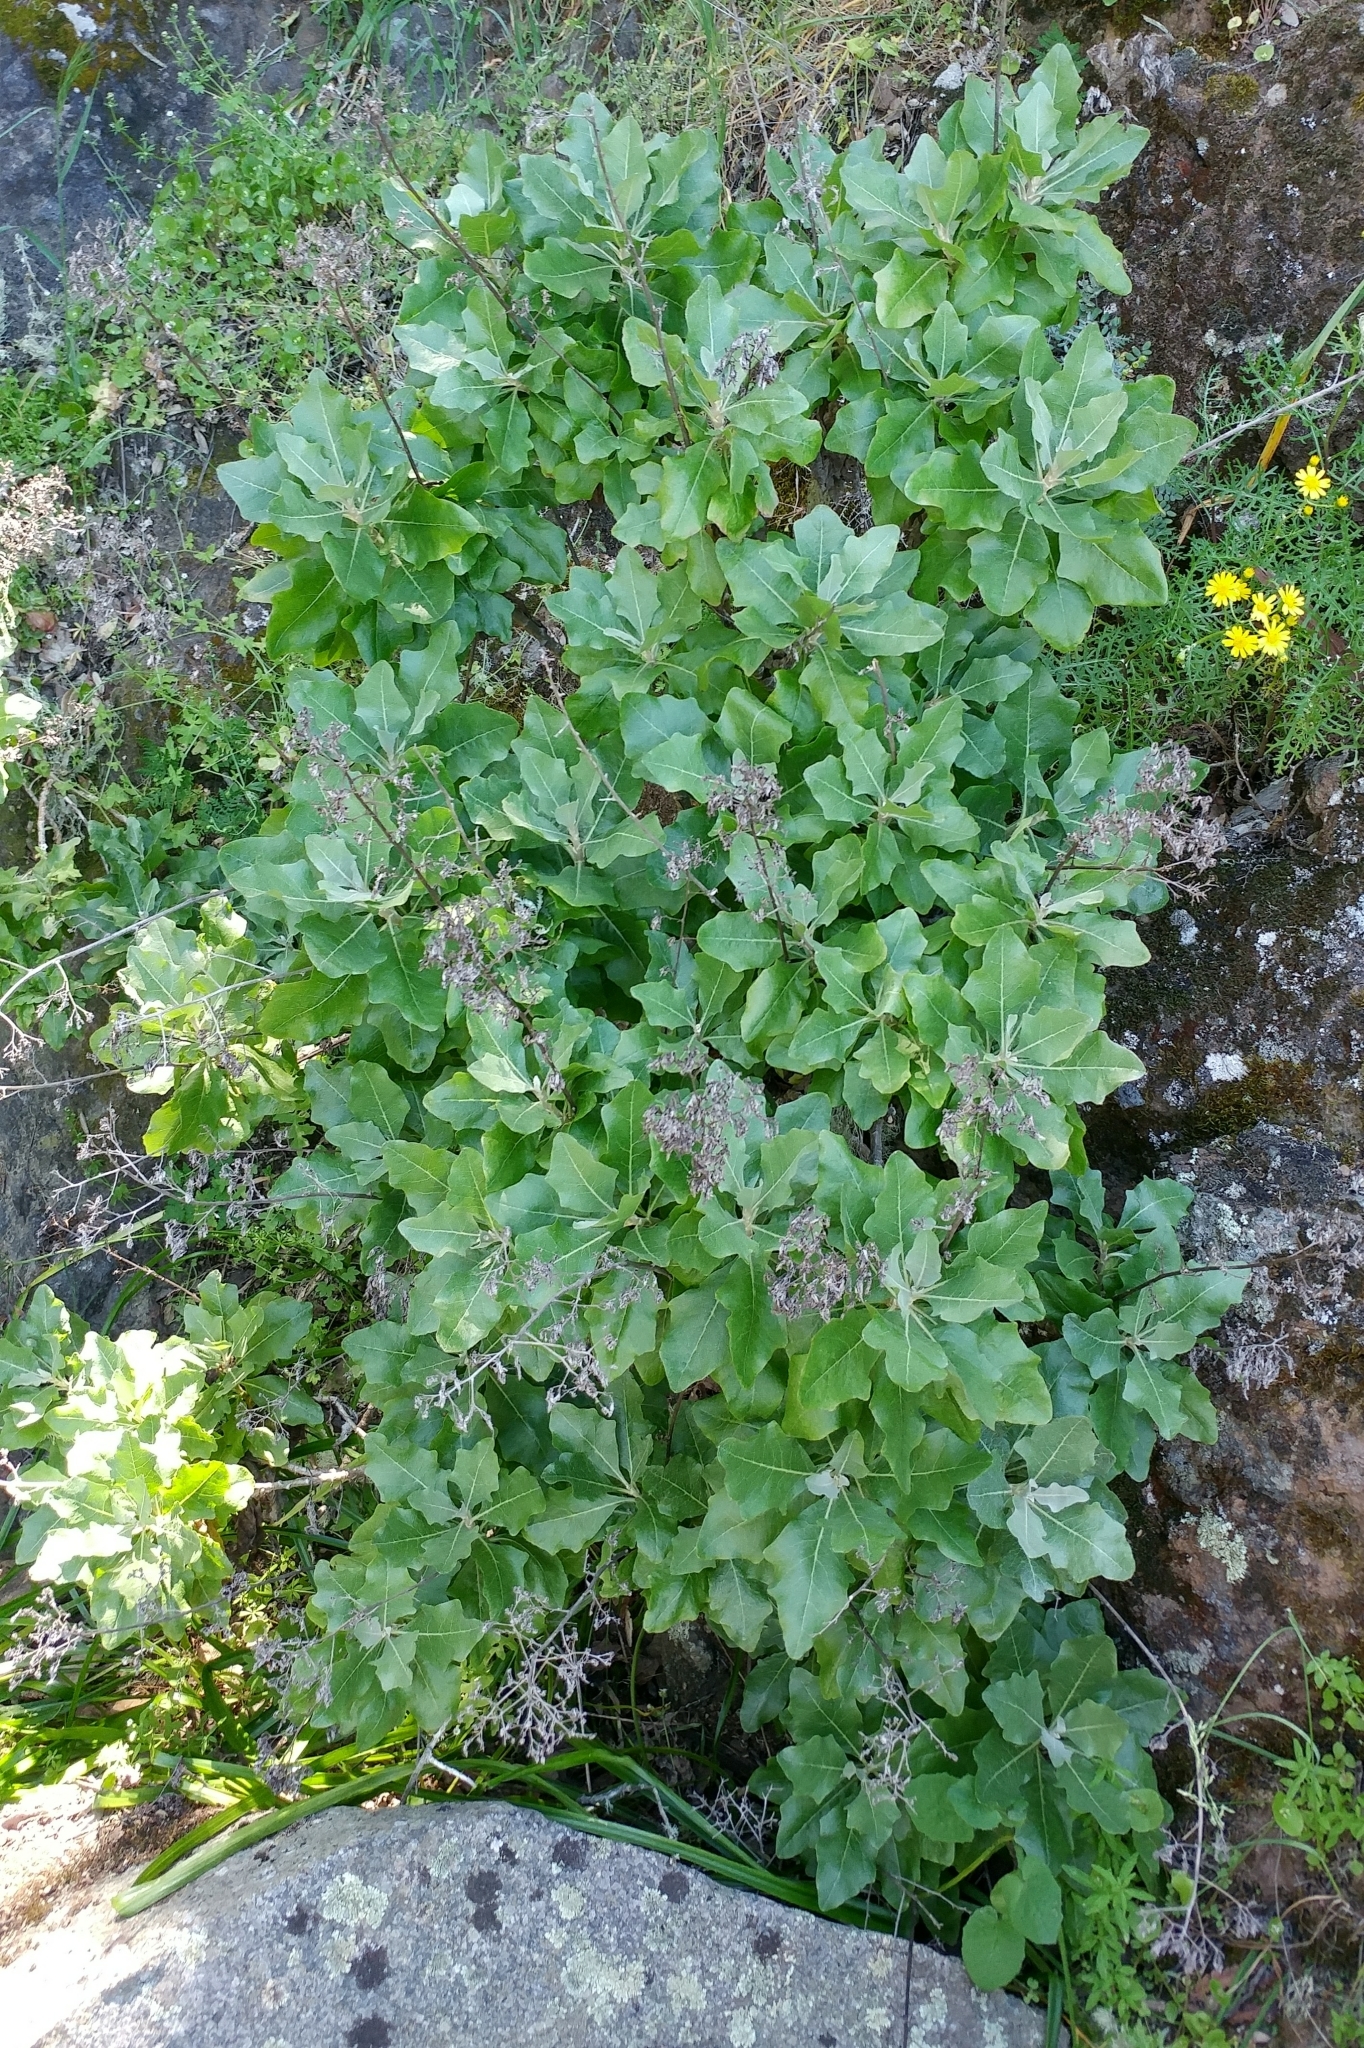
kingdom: Plantae
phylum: Tracheophyta
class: Magnoliopsida
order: Asterales
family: Asteraceae
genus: Munzothamnus
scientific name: Munzothamnus blairii
